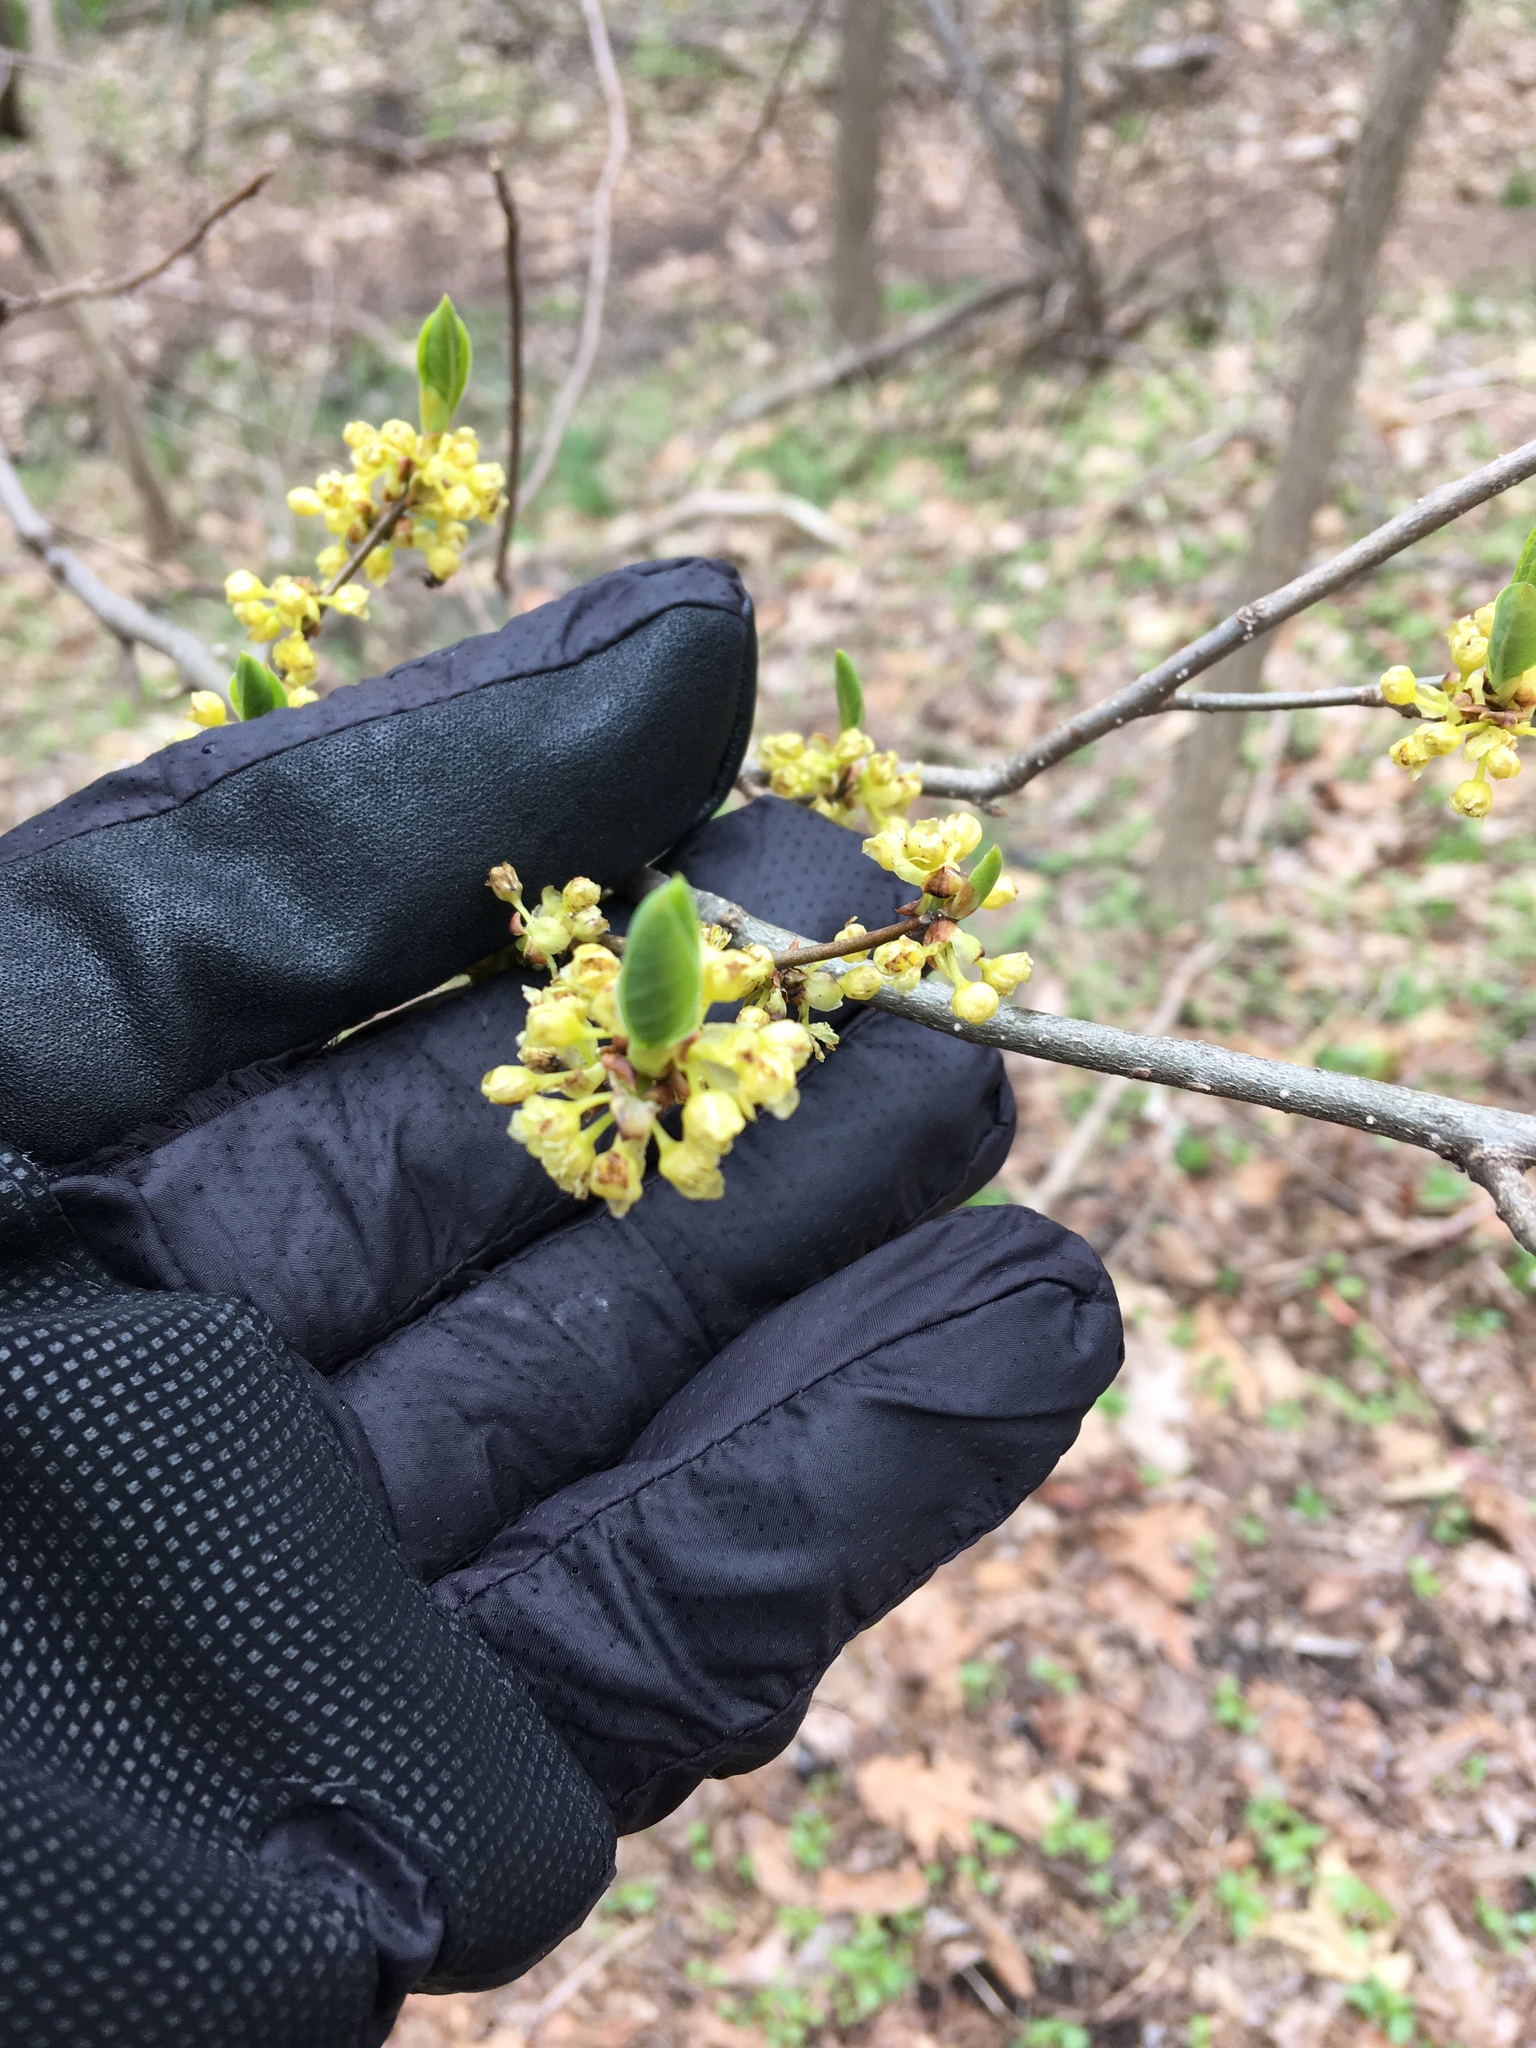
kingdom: Plantae
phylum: Tracheophyta
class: Magnoliopsida
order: Laurales
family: Lauraceae
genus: Lindera
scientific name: Lindera benzoin
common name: Spicebush
